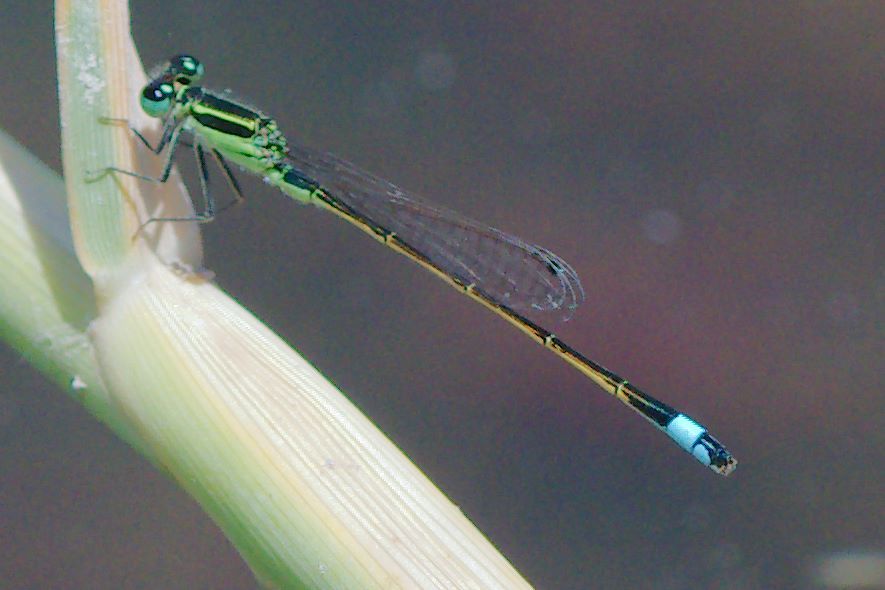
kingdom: Animalia
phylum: Arthropoda
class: Insecta
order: Odonata
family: Coenagrionidae
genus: Ischnura
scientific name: Ischnura ramburii
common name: Rambur's forktail
